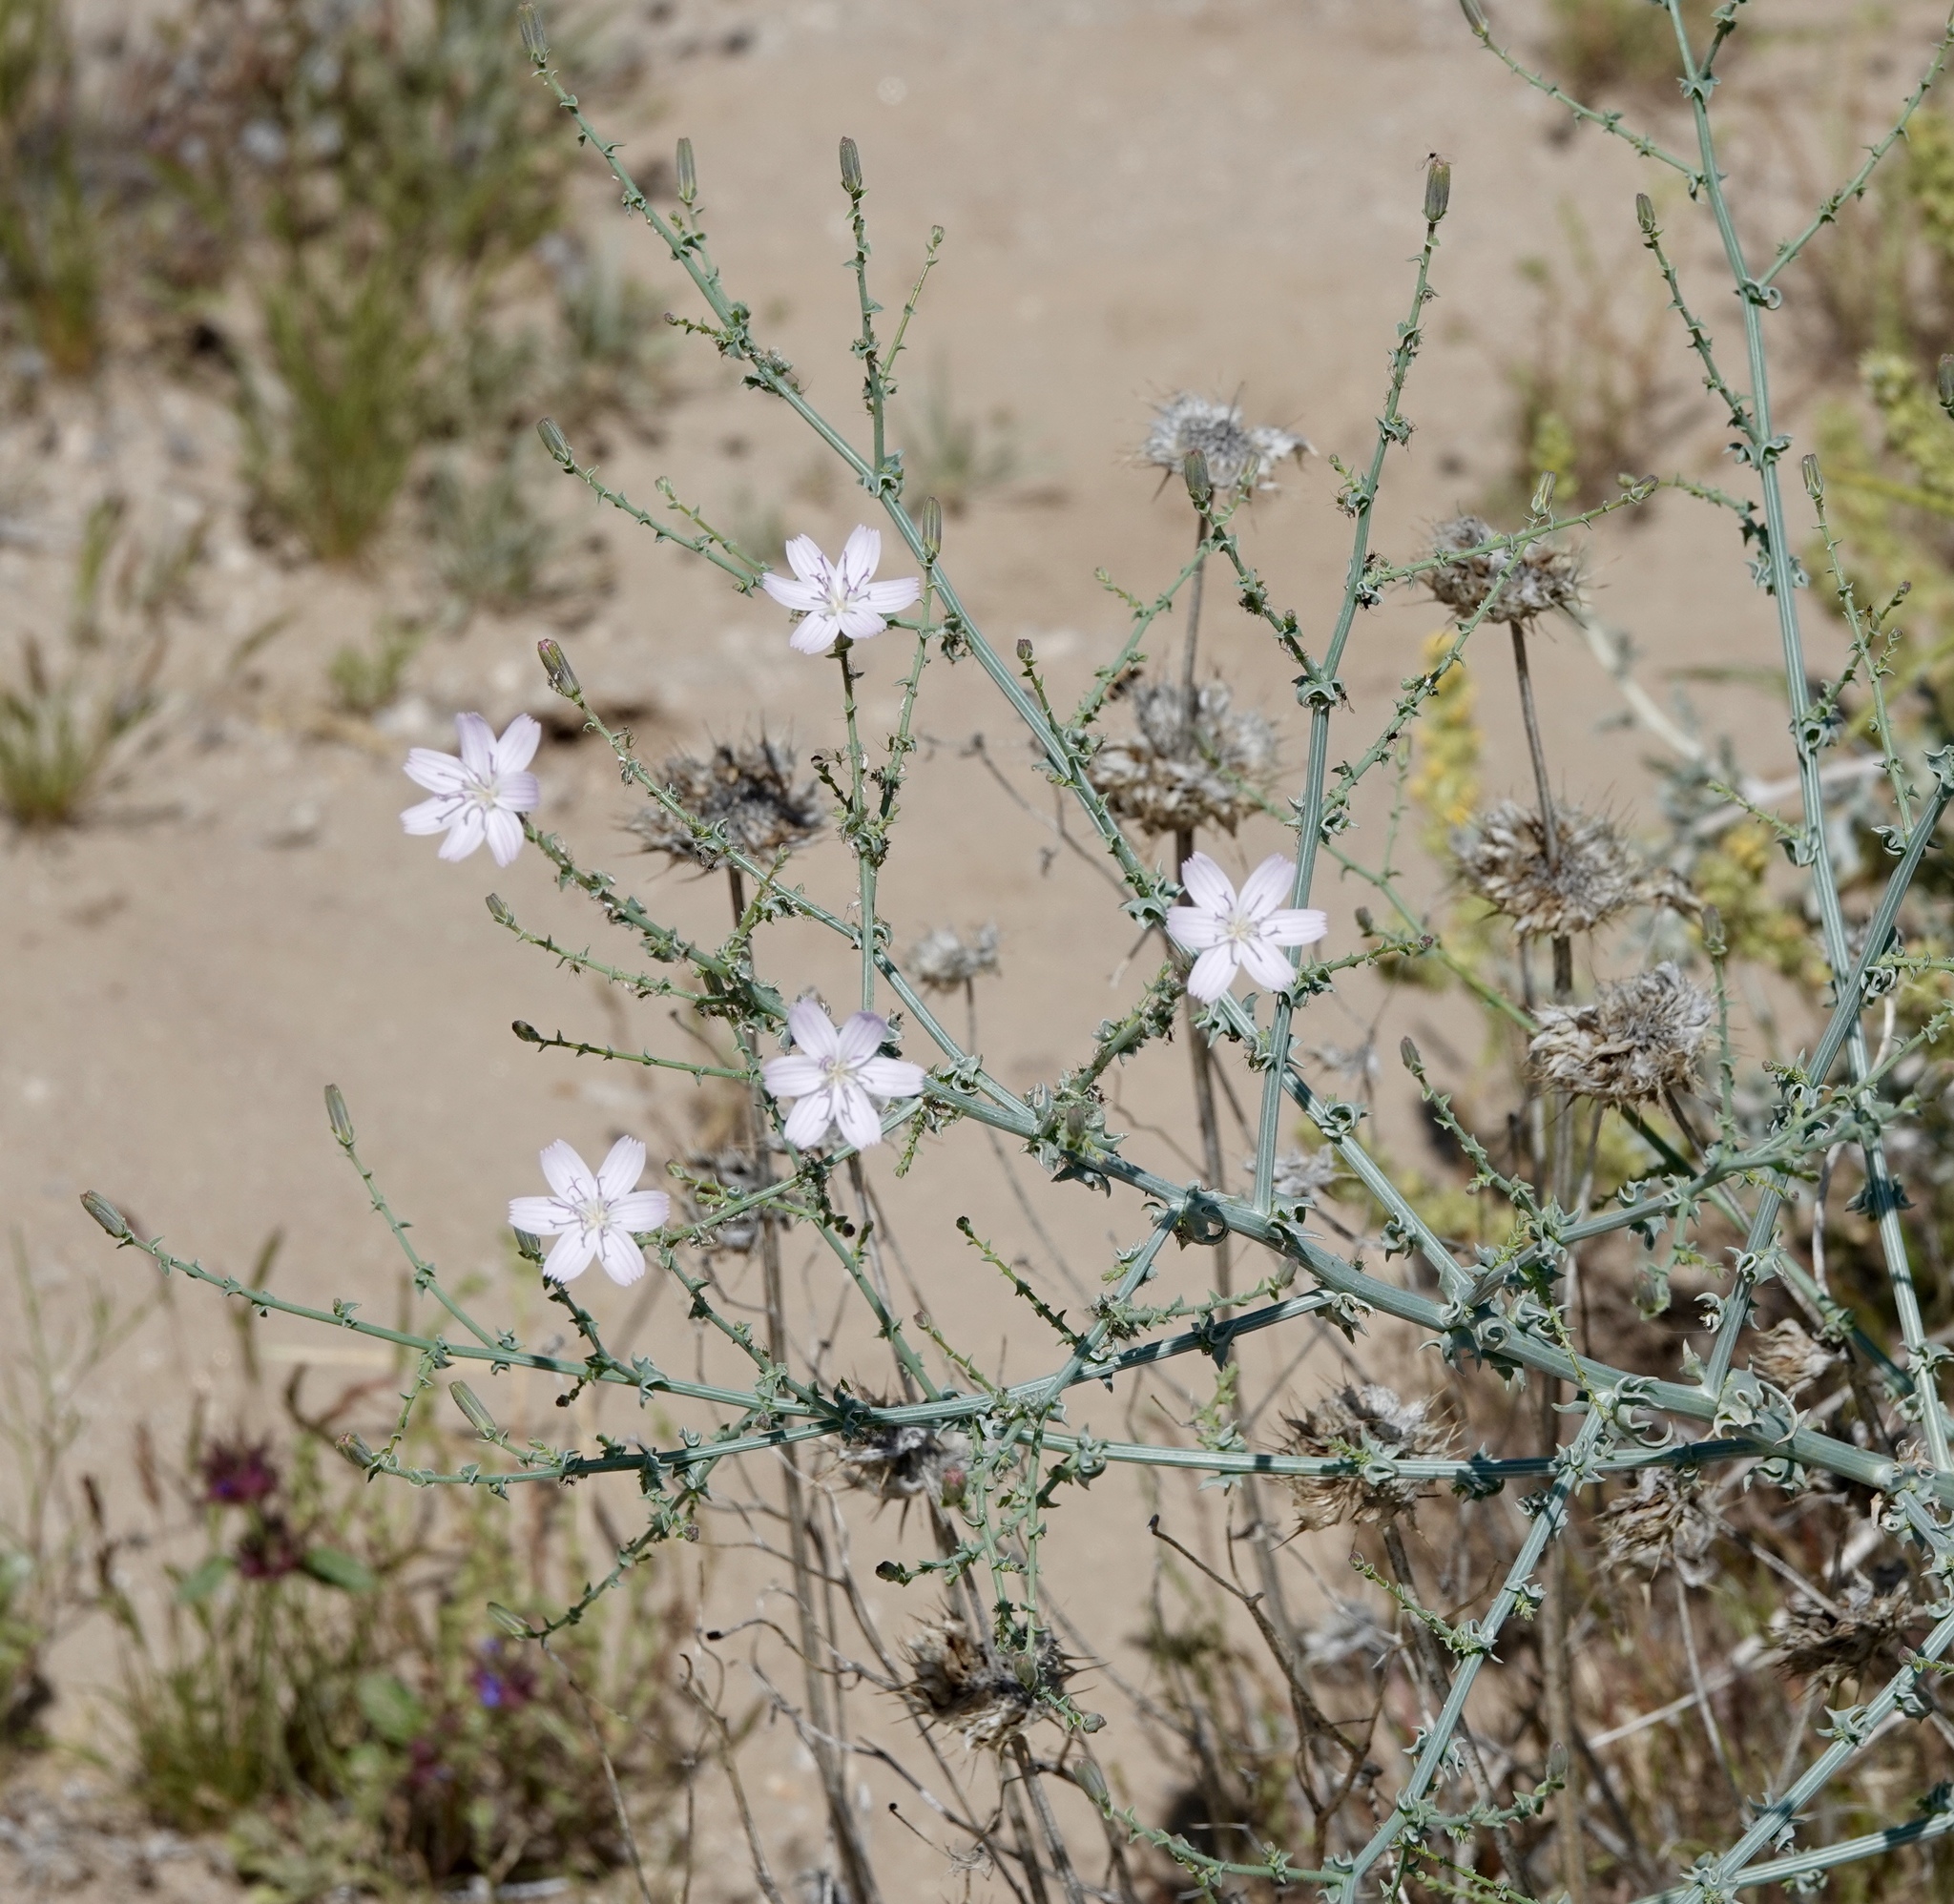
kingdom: Plantae
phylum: Tracheophyta
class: Magnoliopsida
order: Asterales
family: Asteraceae
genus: Stephanomeria
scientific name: Stephanomeria exigua
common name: Small wirelettuce
